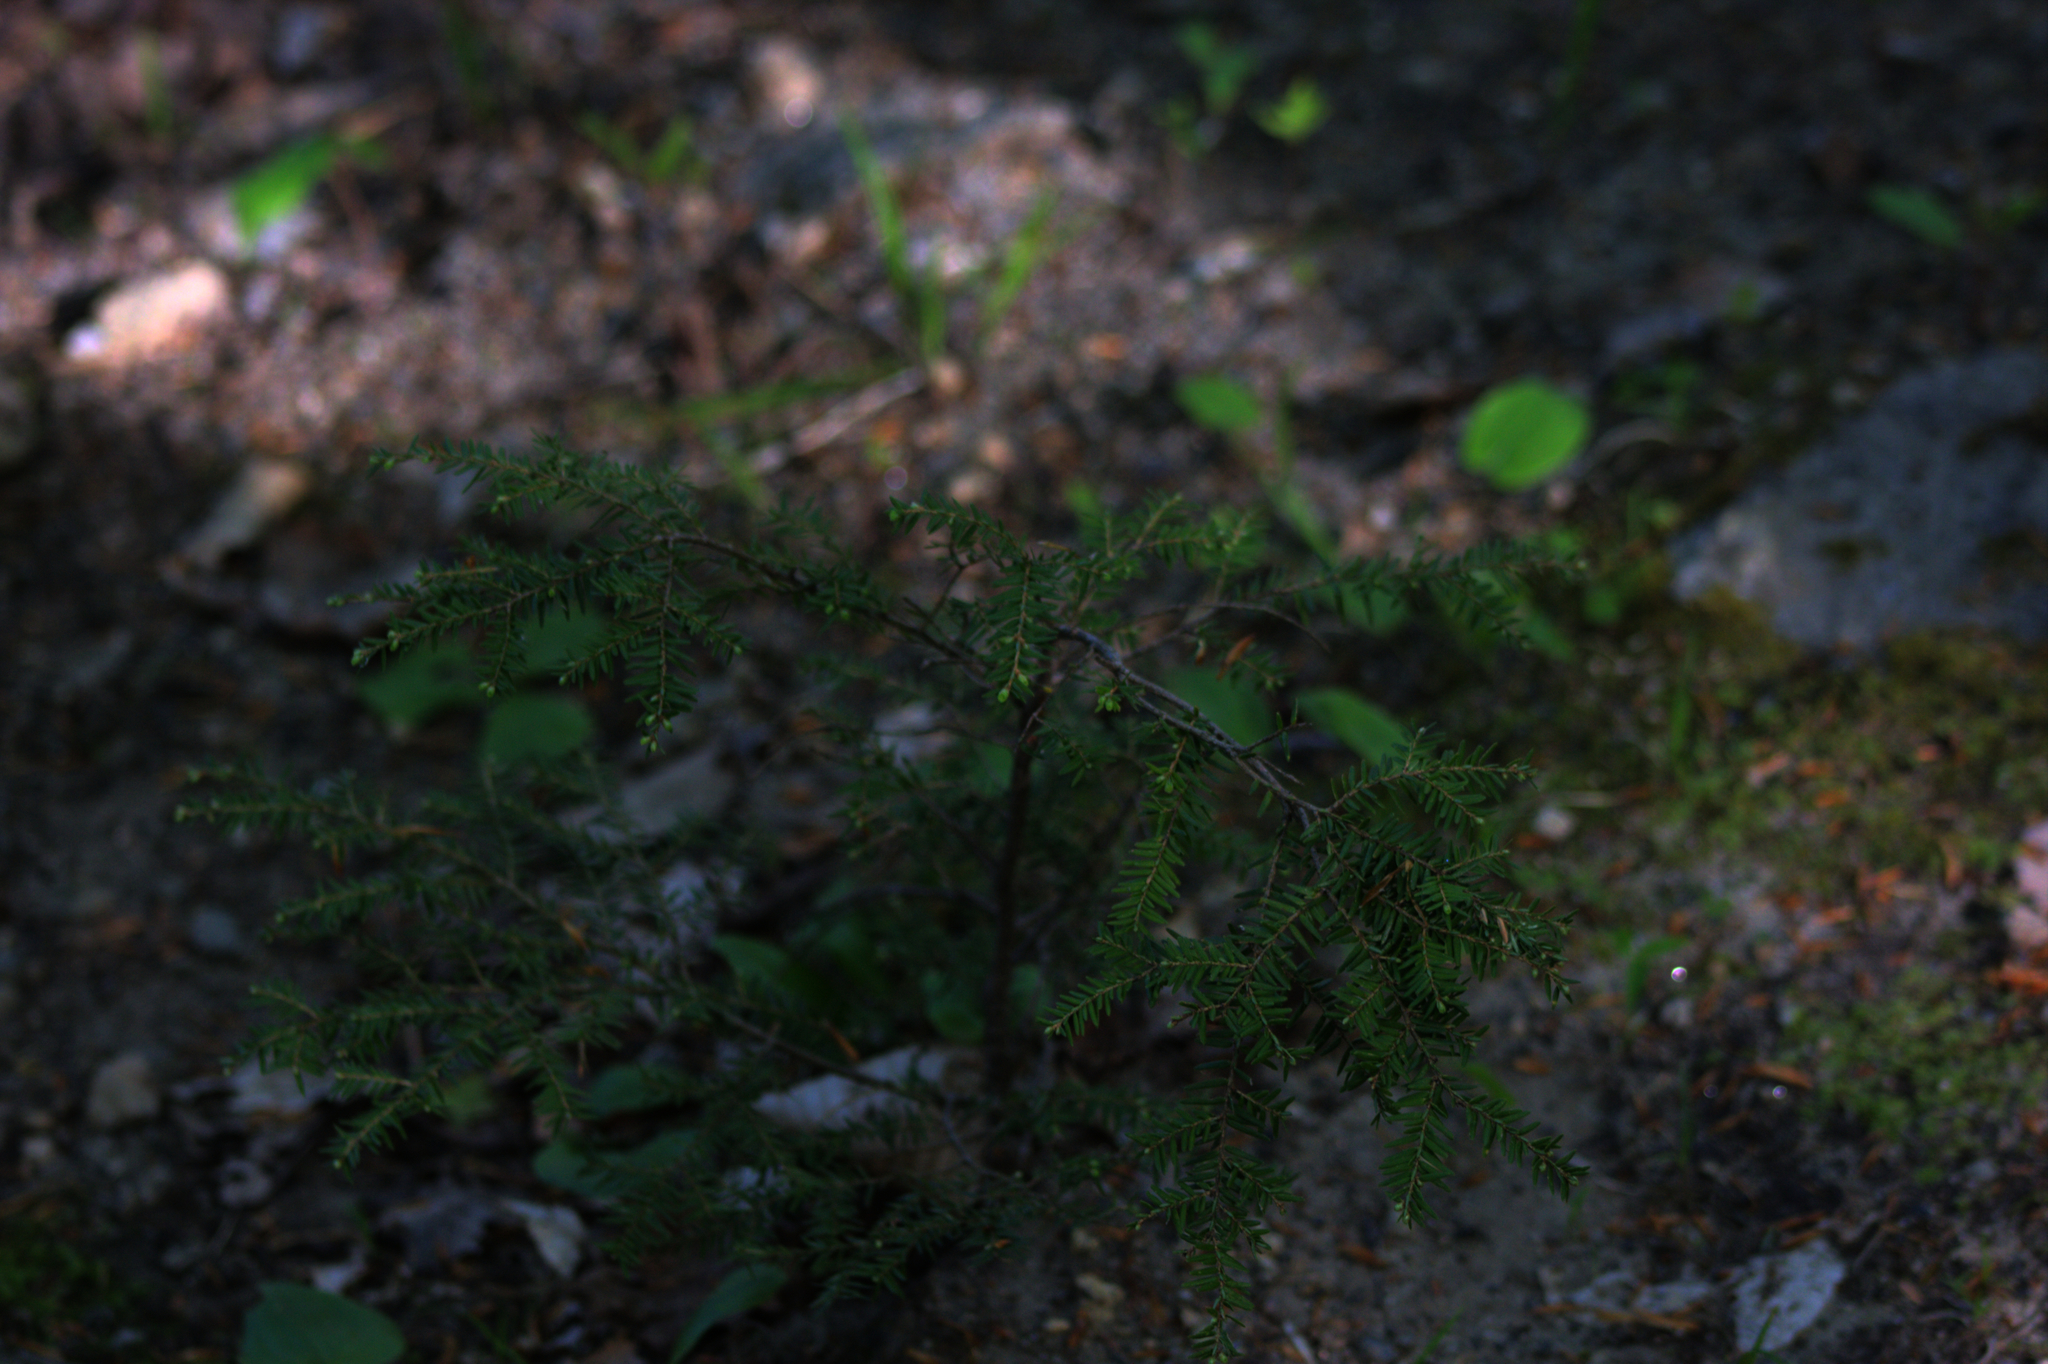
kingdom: Plantae
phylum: Tracheophyta
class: Pinopsida
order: Pinales
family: Pinaceae
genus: Tsuga
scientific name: Tsuga canadensis
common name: Eastern hemlock
